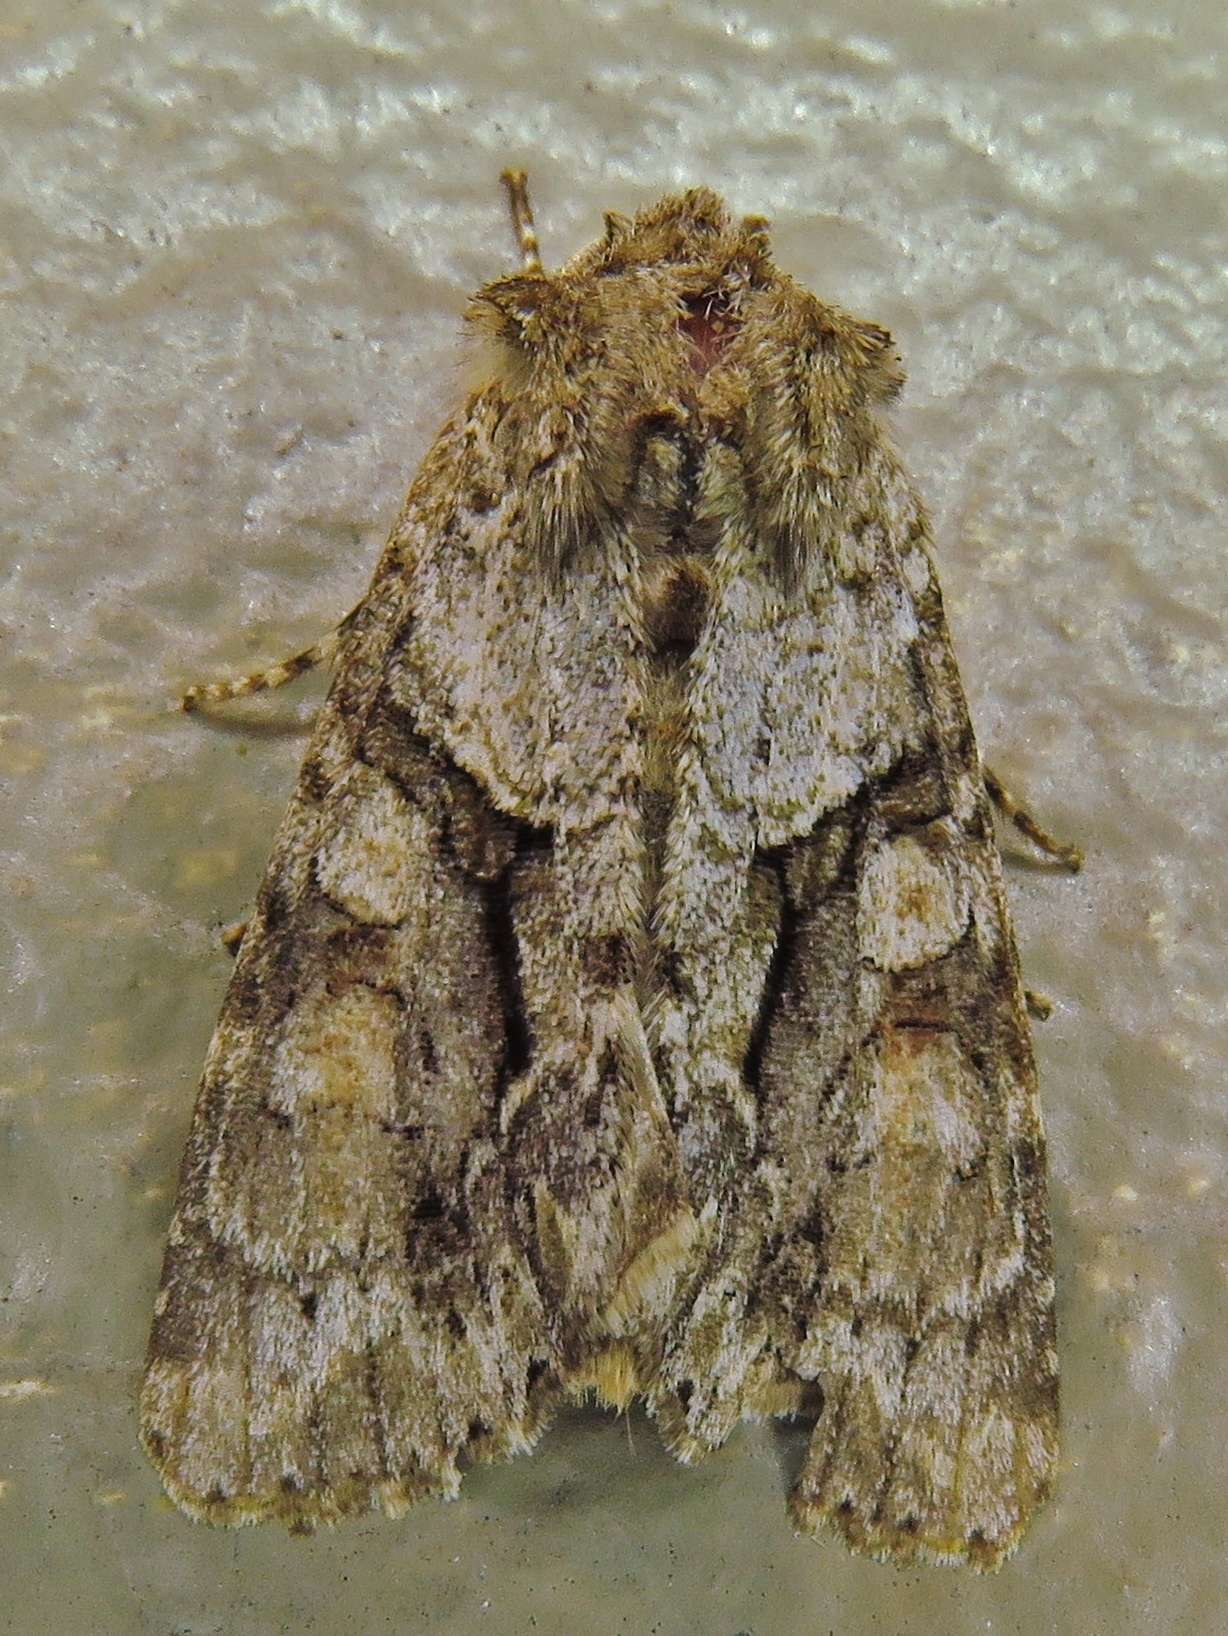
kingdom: Animalia
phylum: Arthropoda
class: Insecta
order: Lepidoptera
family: Noctuidae
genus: Achatia
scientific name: Achatia distincta
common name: Distinct quaker
